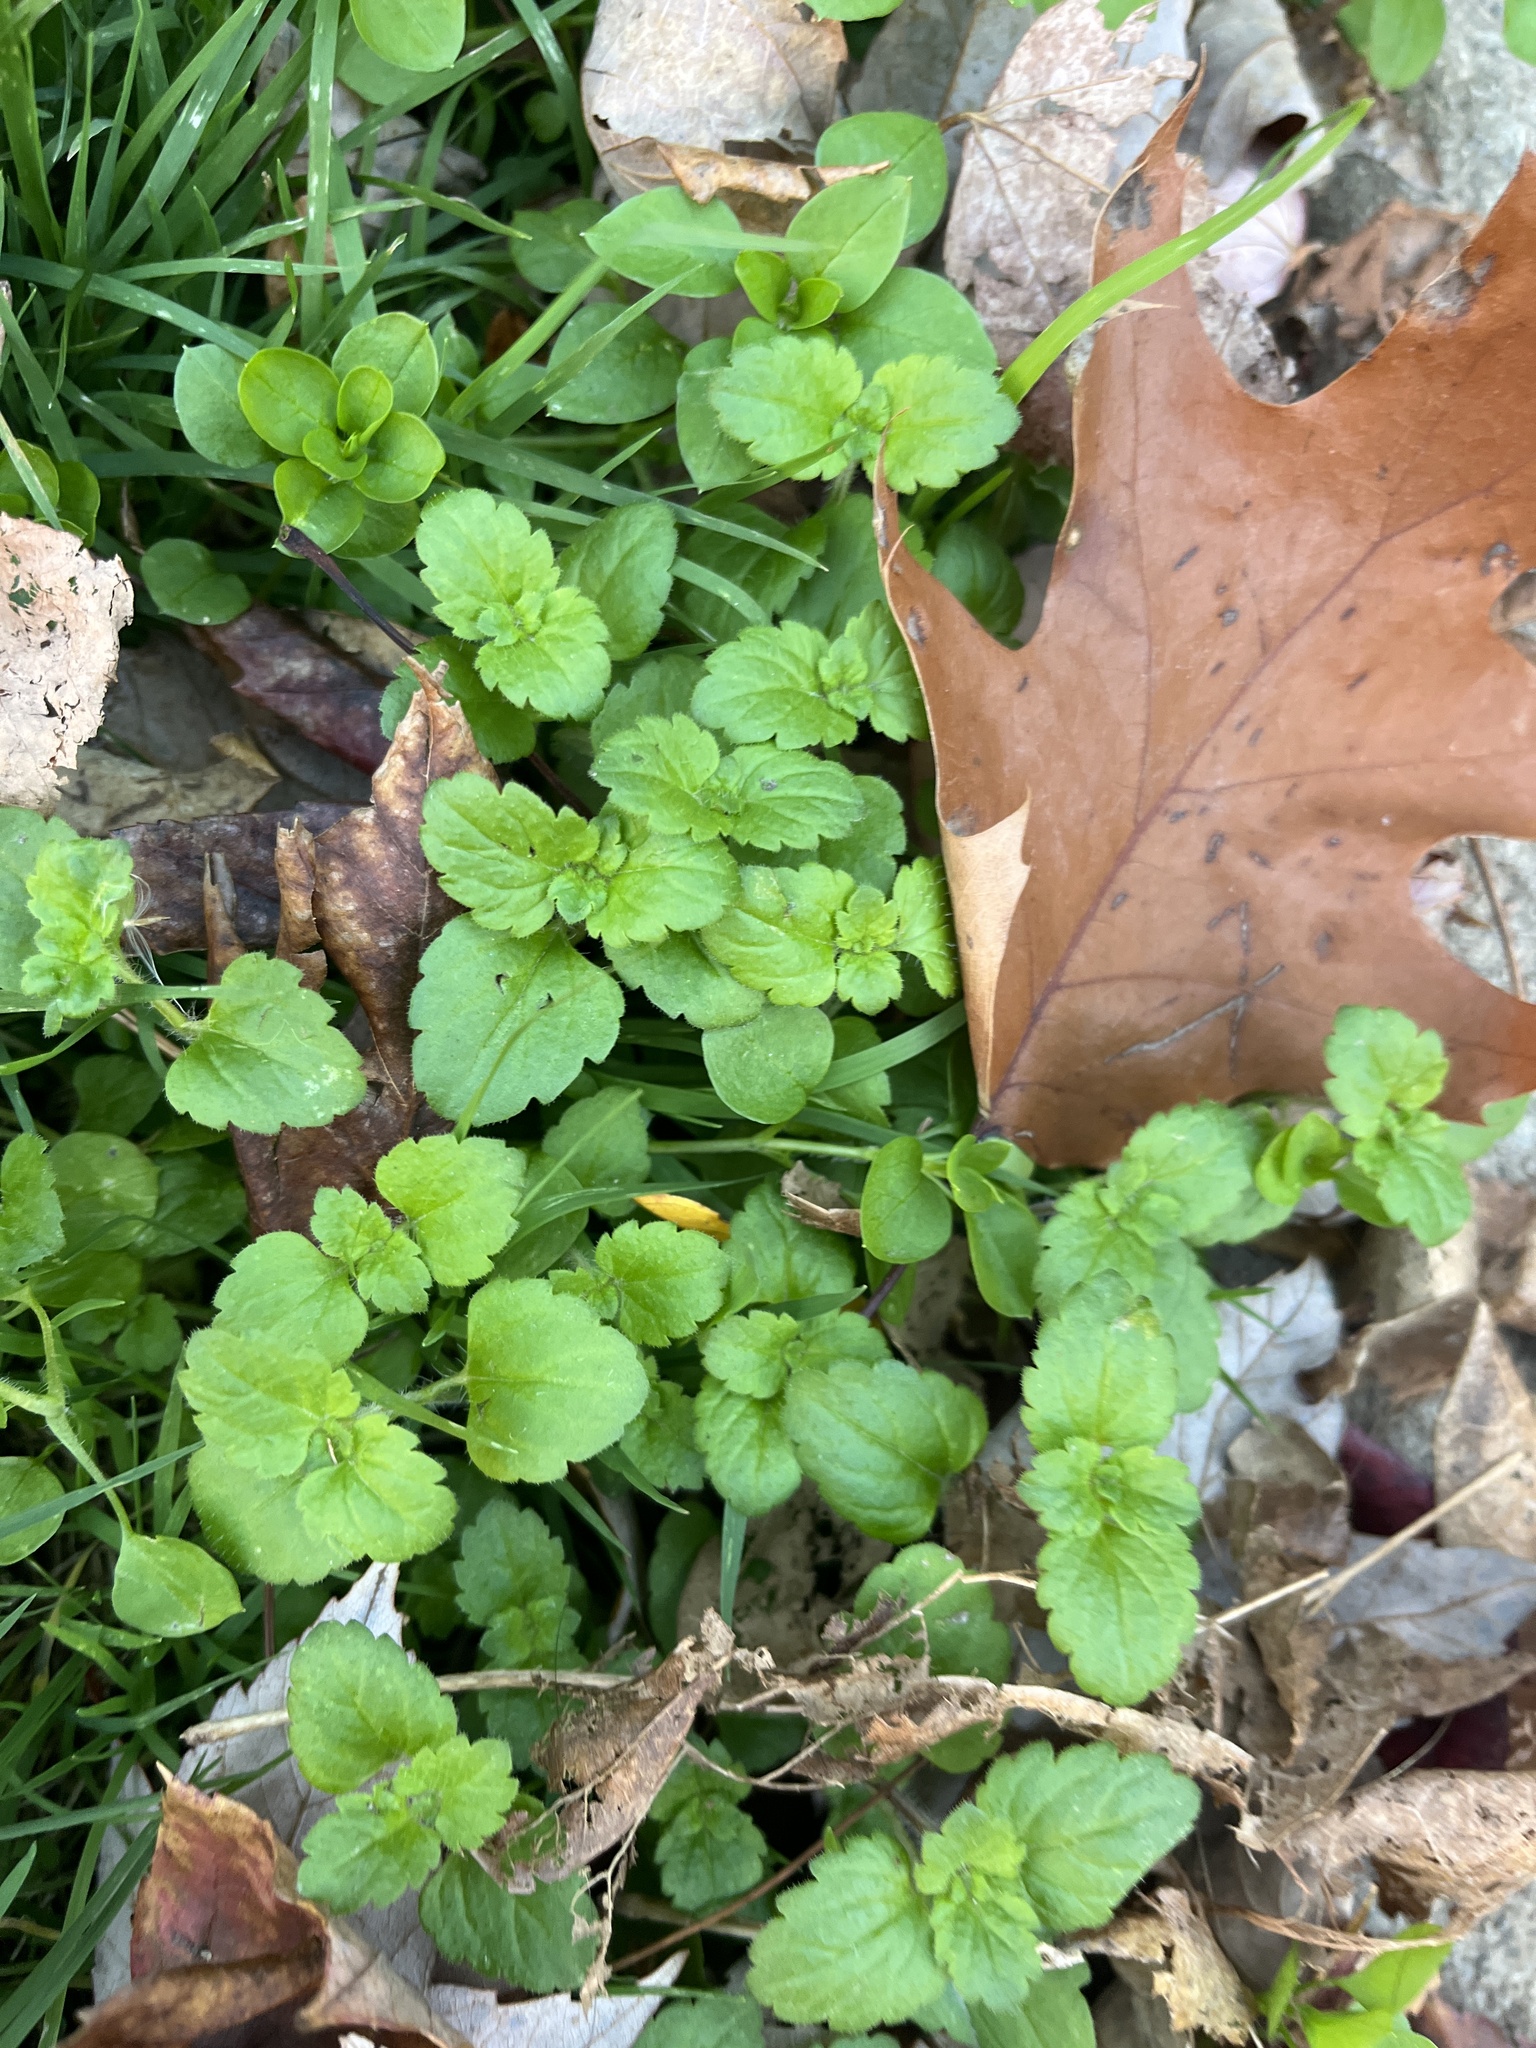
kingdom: Plantae
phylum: Tracheophyta
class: Magnoliopsida
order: Lamiales
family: Plantaginaceae
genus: Veronica
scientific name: Veronica persica
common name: Common field-speedwell
